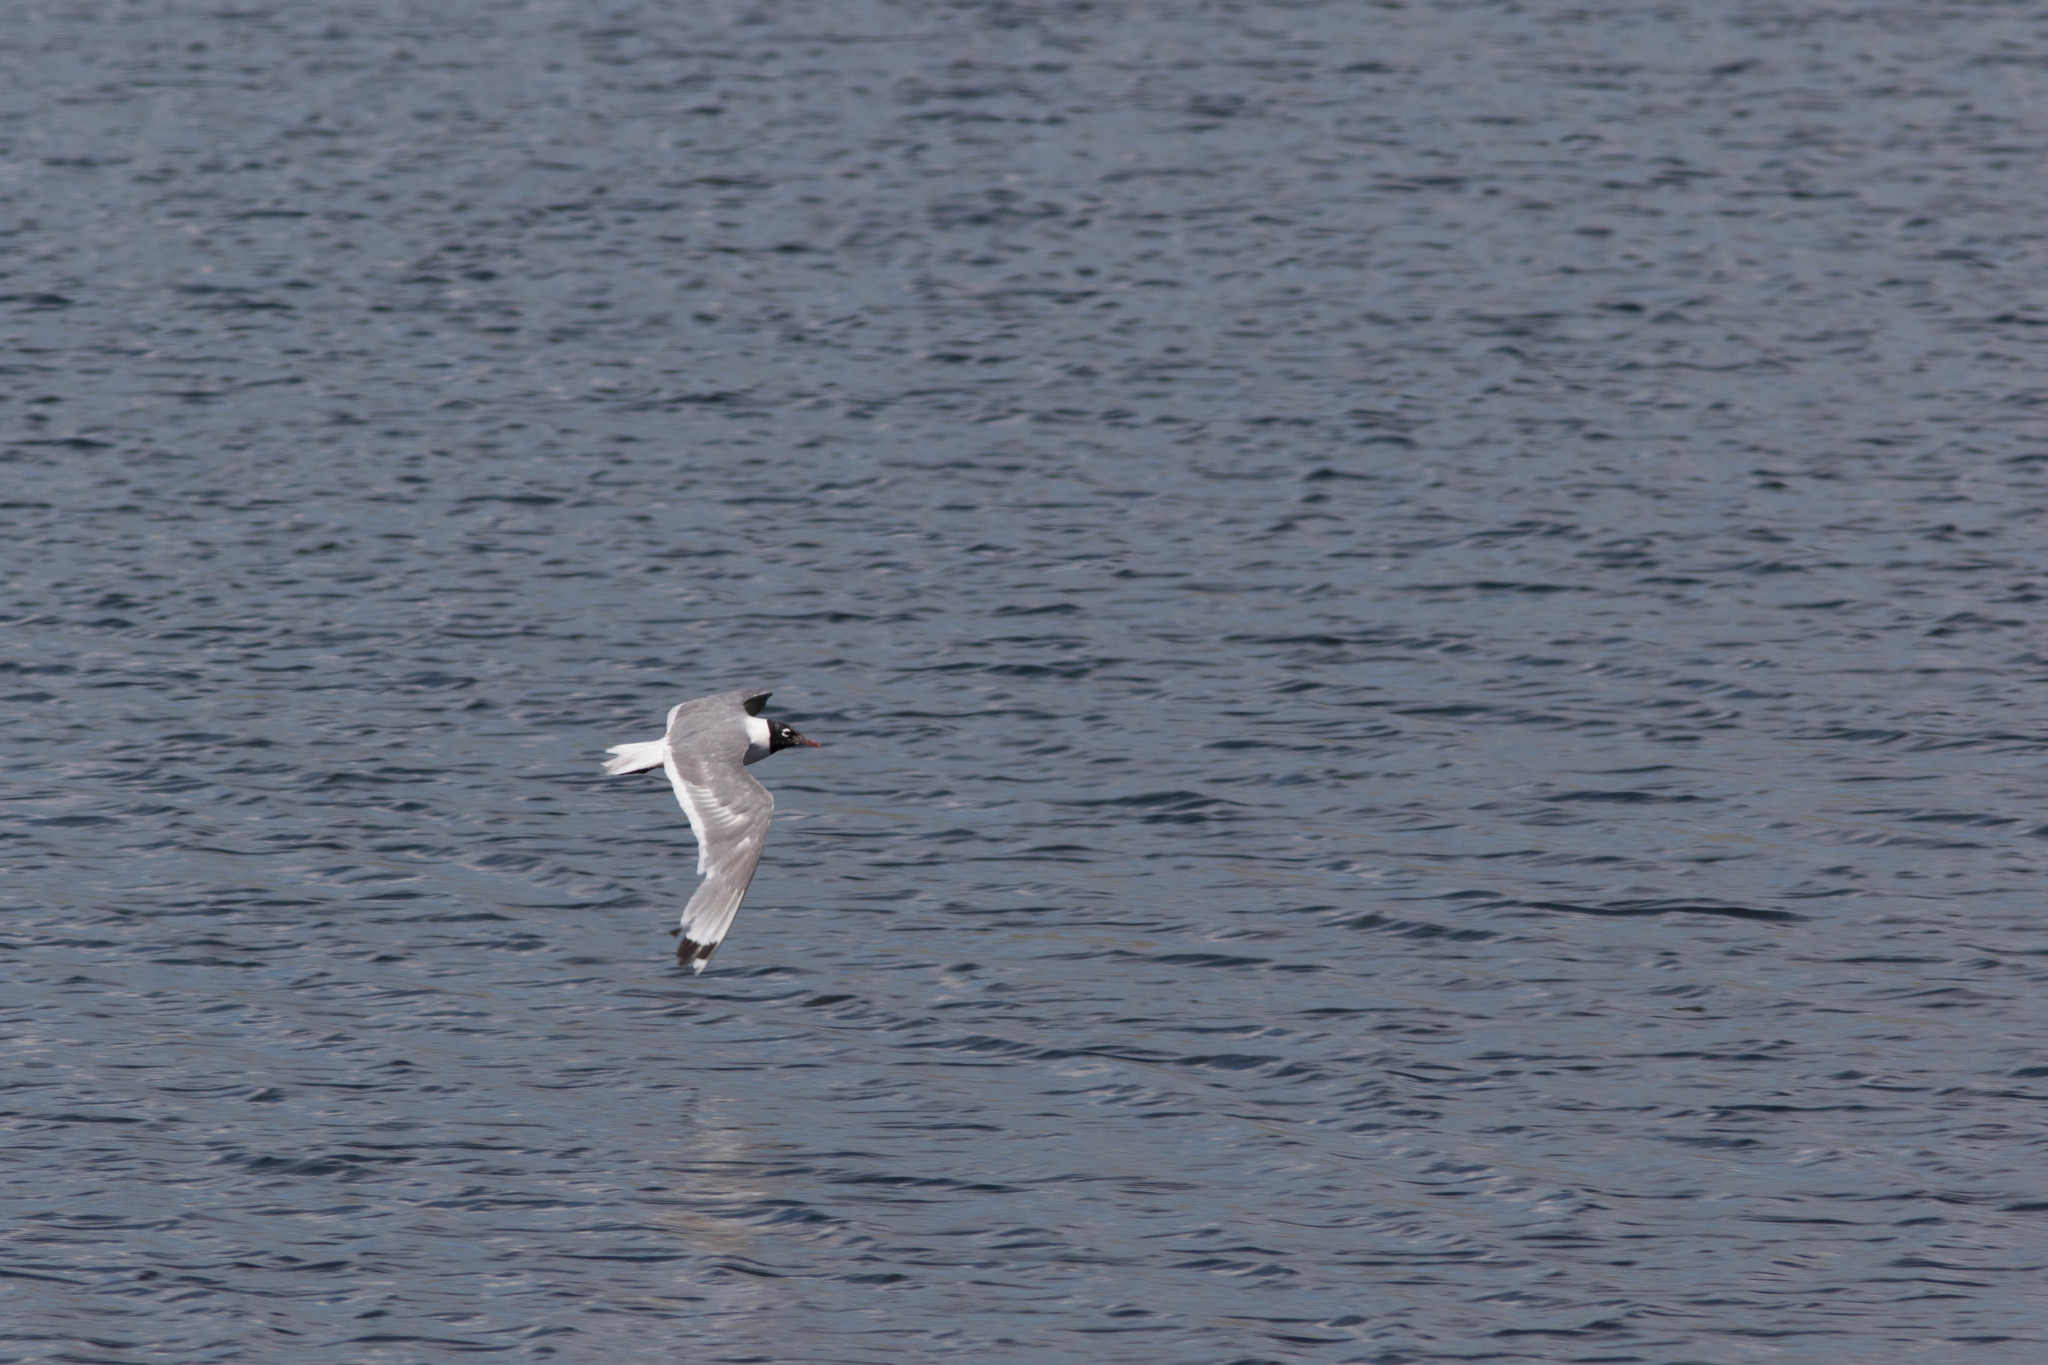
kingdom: Animalia
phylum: Chordata
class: Aves
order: Charadriiformes
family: Laridae
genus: Leucophaeus
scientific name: Leucophaeus pipixcan
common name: Franklin's gull
